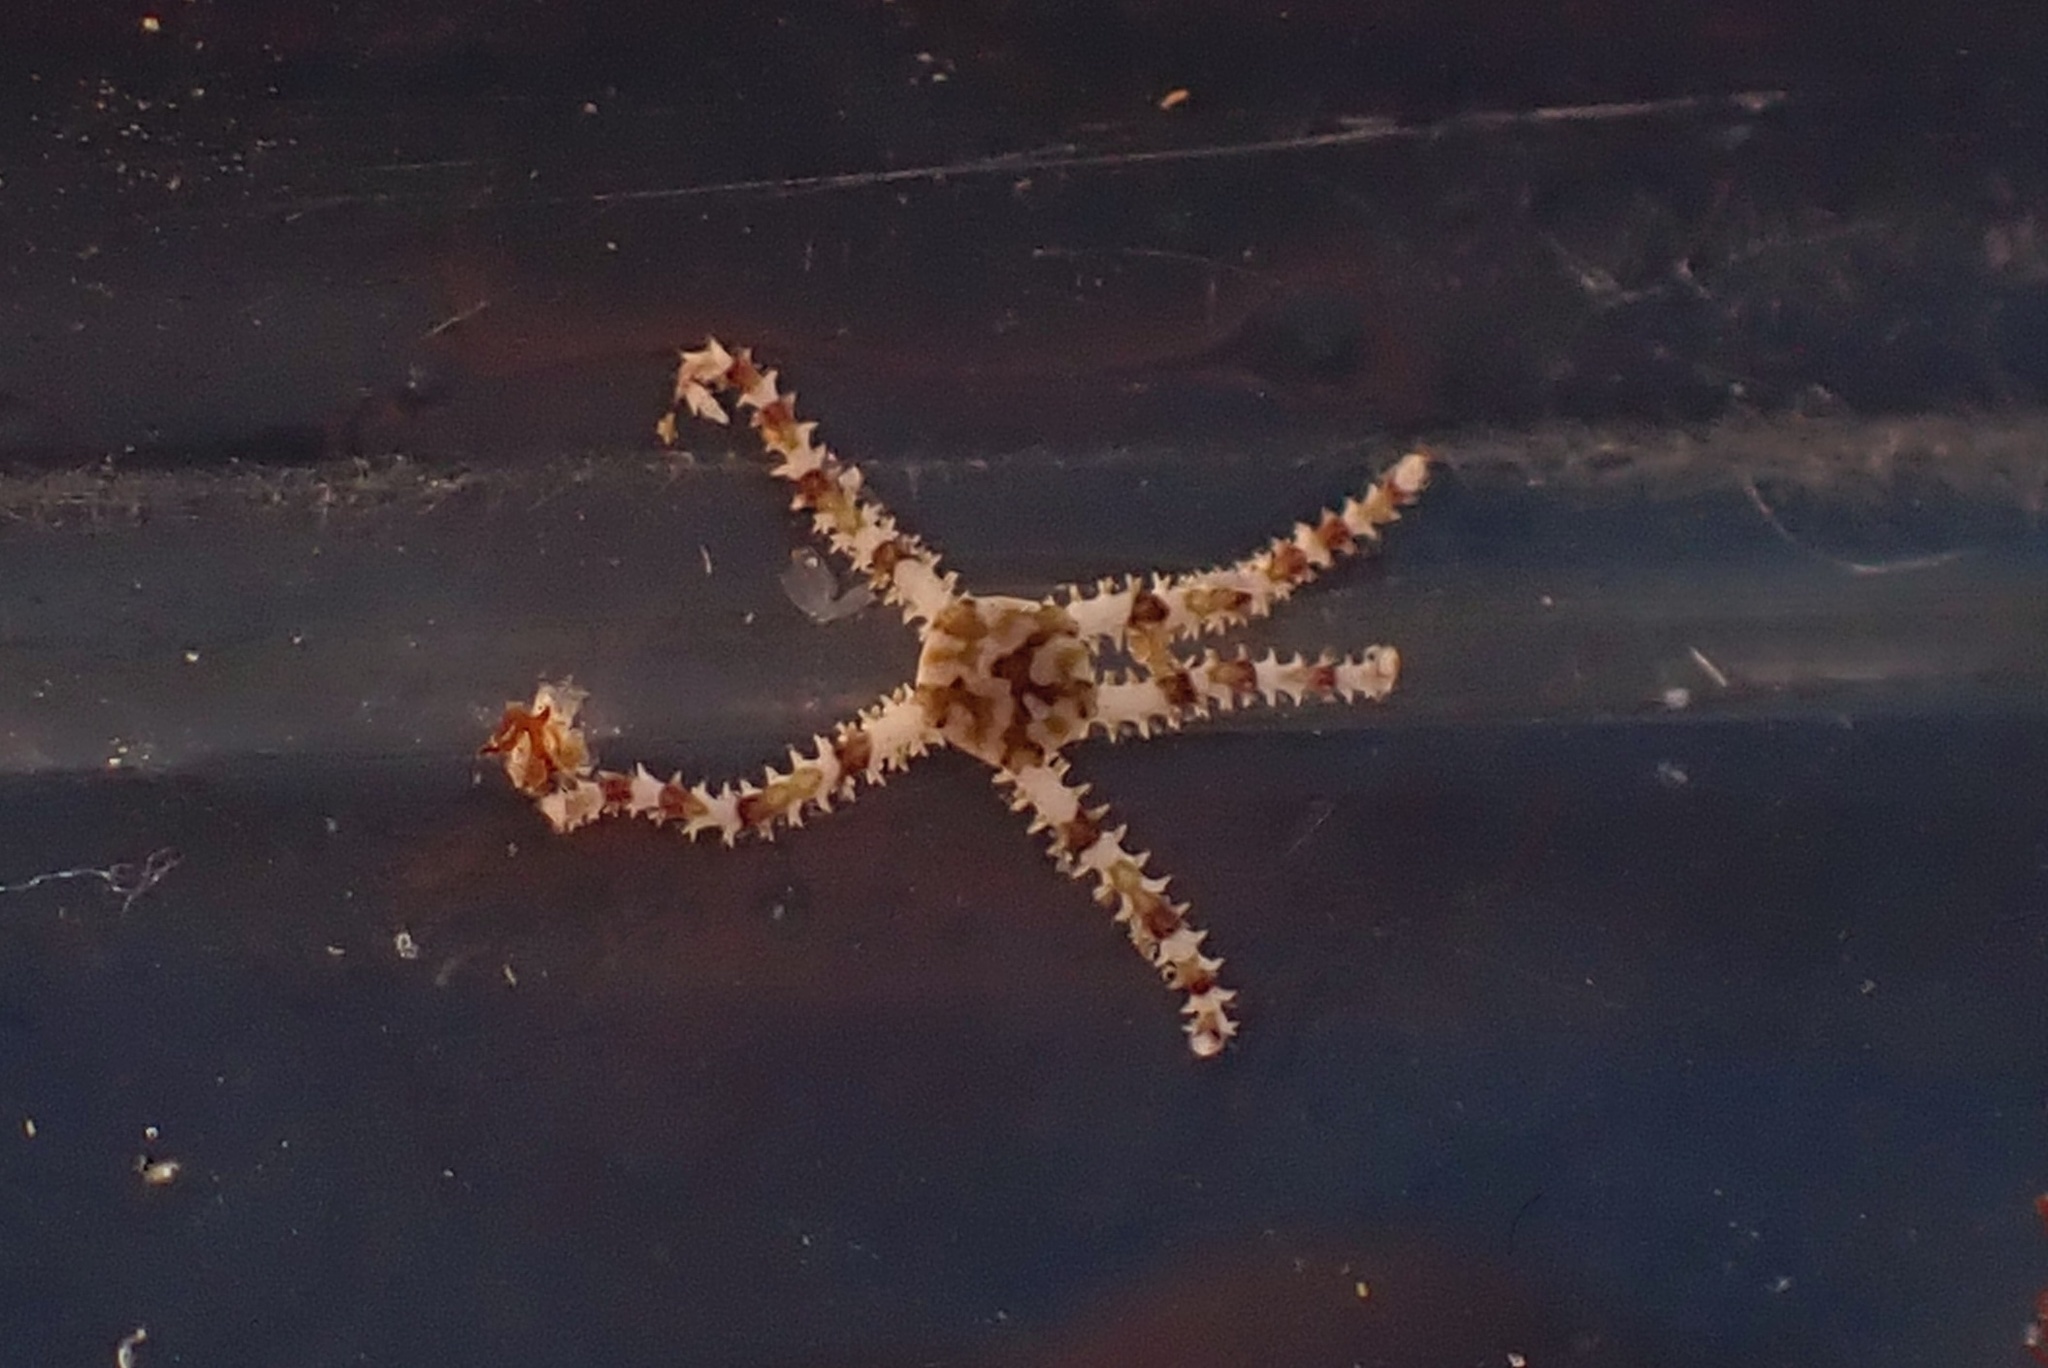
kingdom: Animalia
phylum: Echinodermata
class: Ophiuroidea
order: Amphilepidida
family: Ophionereididae
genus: Ophionereis
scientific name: Ophionereis diabloensis
